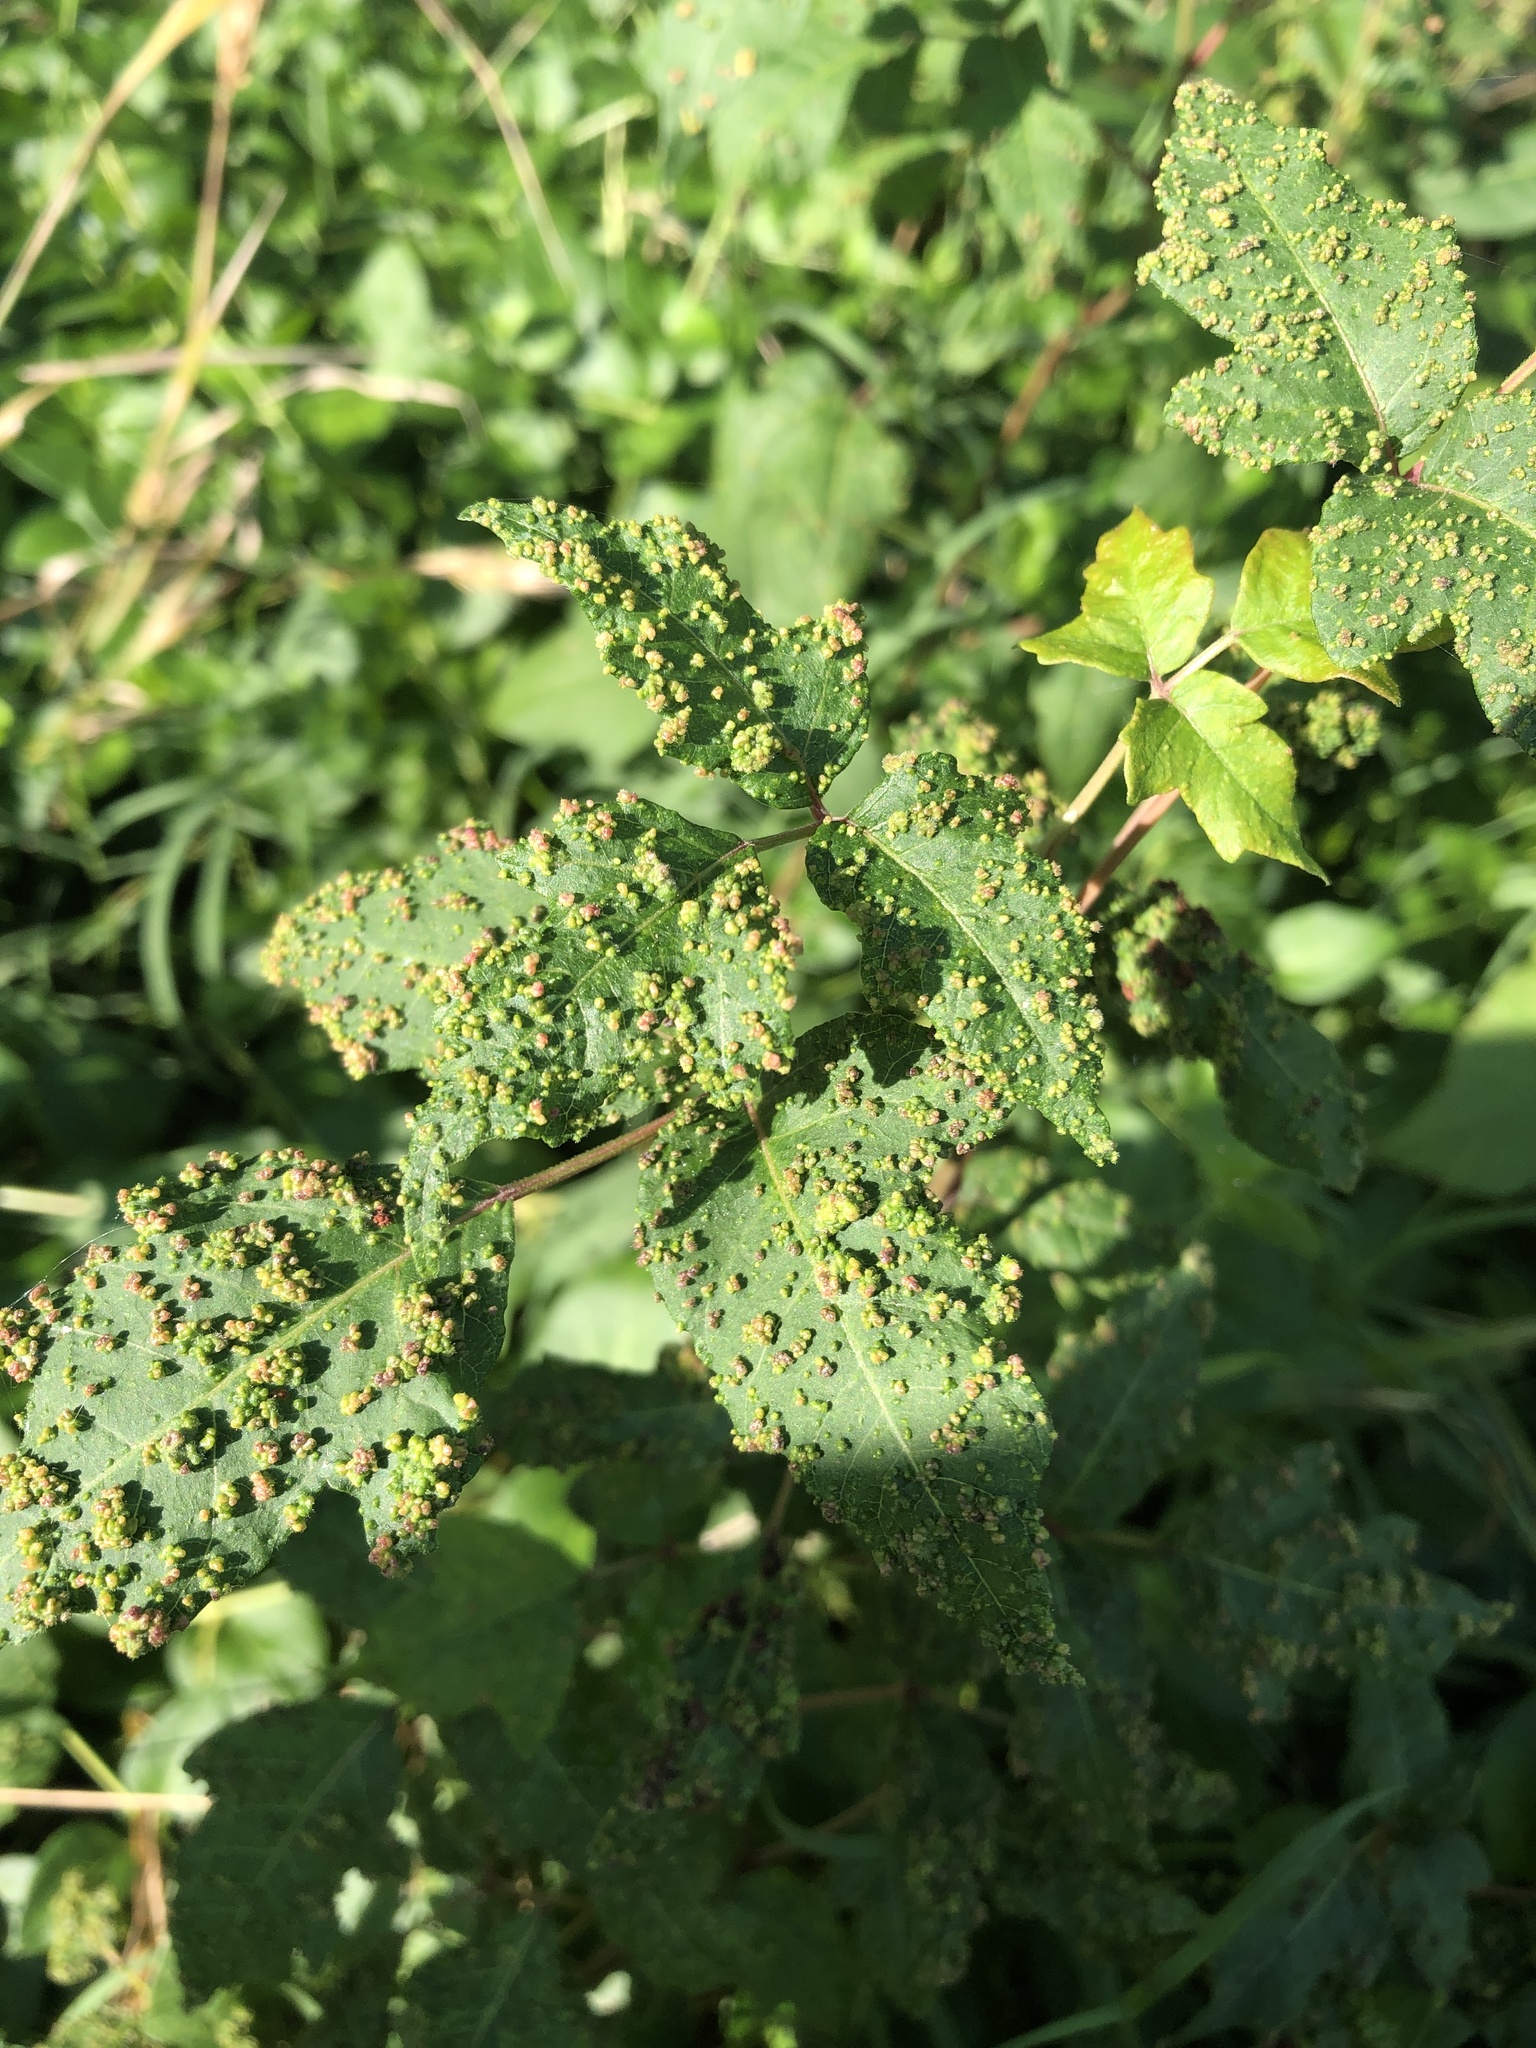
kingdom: Animalia
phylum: Arthropoda
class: Arachnida
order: Trombidiformes
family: Eriophyidae
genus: Aculops
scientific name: Aculops
